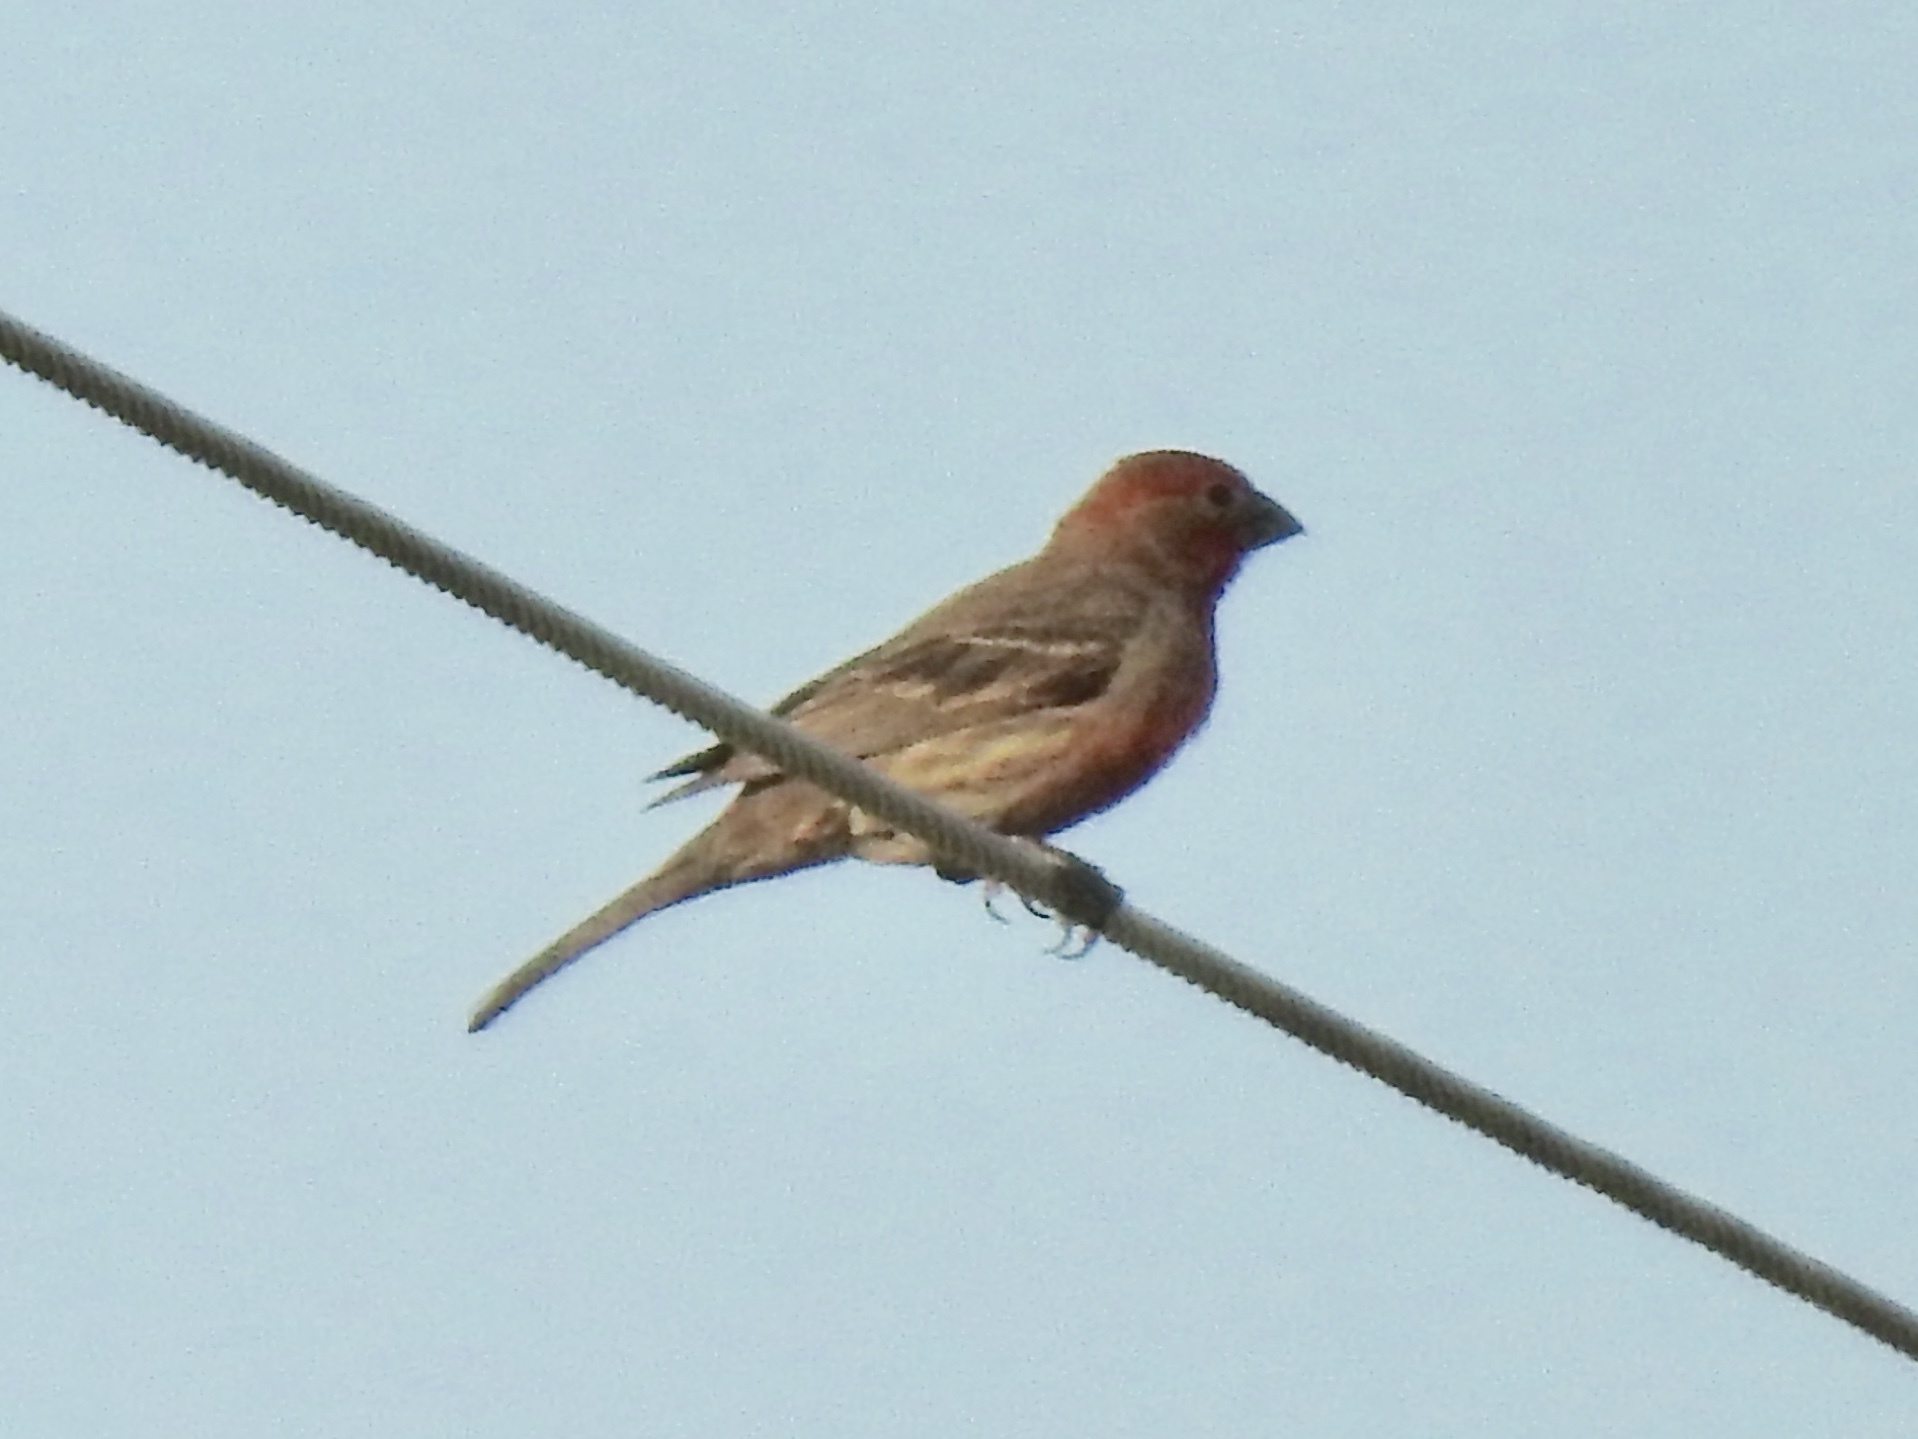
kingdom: Animalia
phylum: Chordata
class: Aves
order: Passeriformes
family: Fringillidae
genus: Haemorhous
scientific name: Haemorhous mexicanus
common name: House finch
